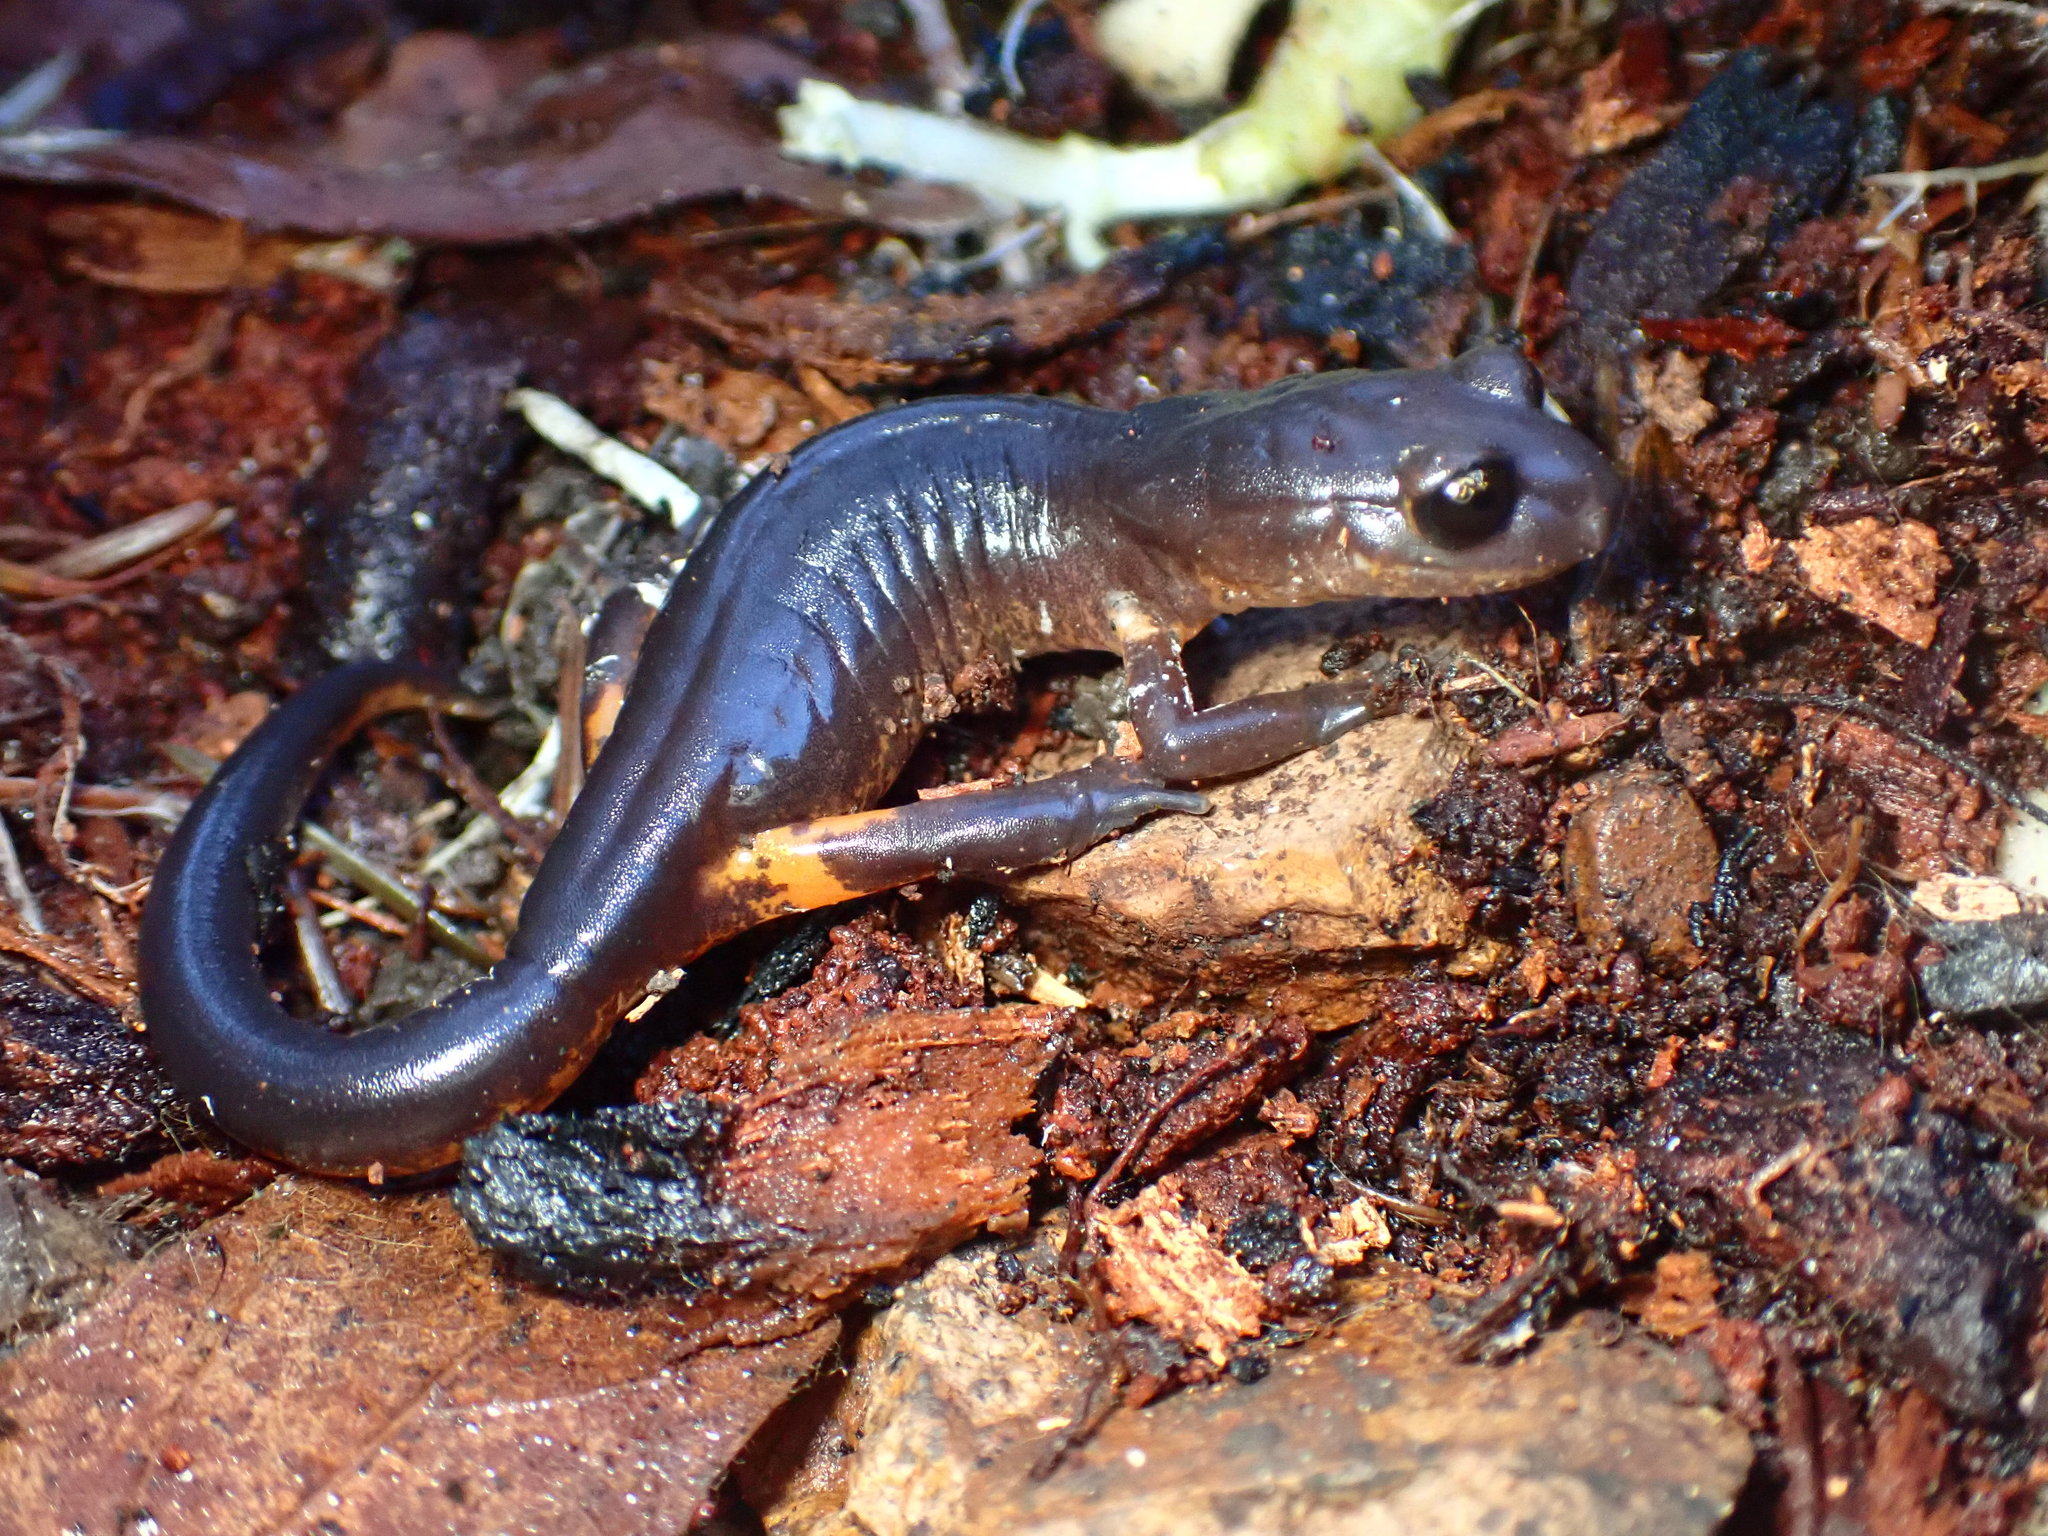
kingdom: Animalia
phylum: Chordata
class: Amphibia
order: Caudata
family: Plethodontidae
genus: Ensatina
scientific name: Ensatina eschscholtzii
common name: Ensatina
